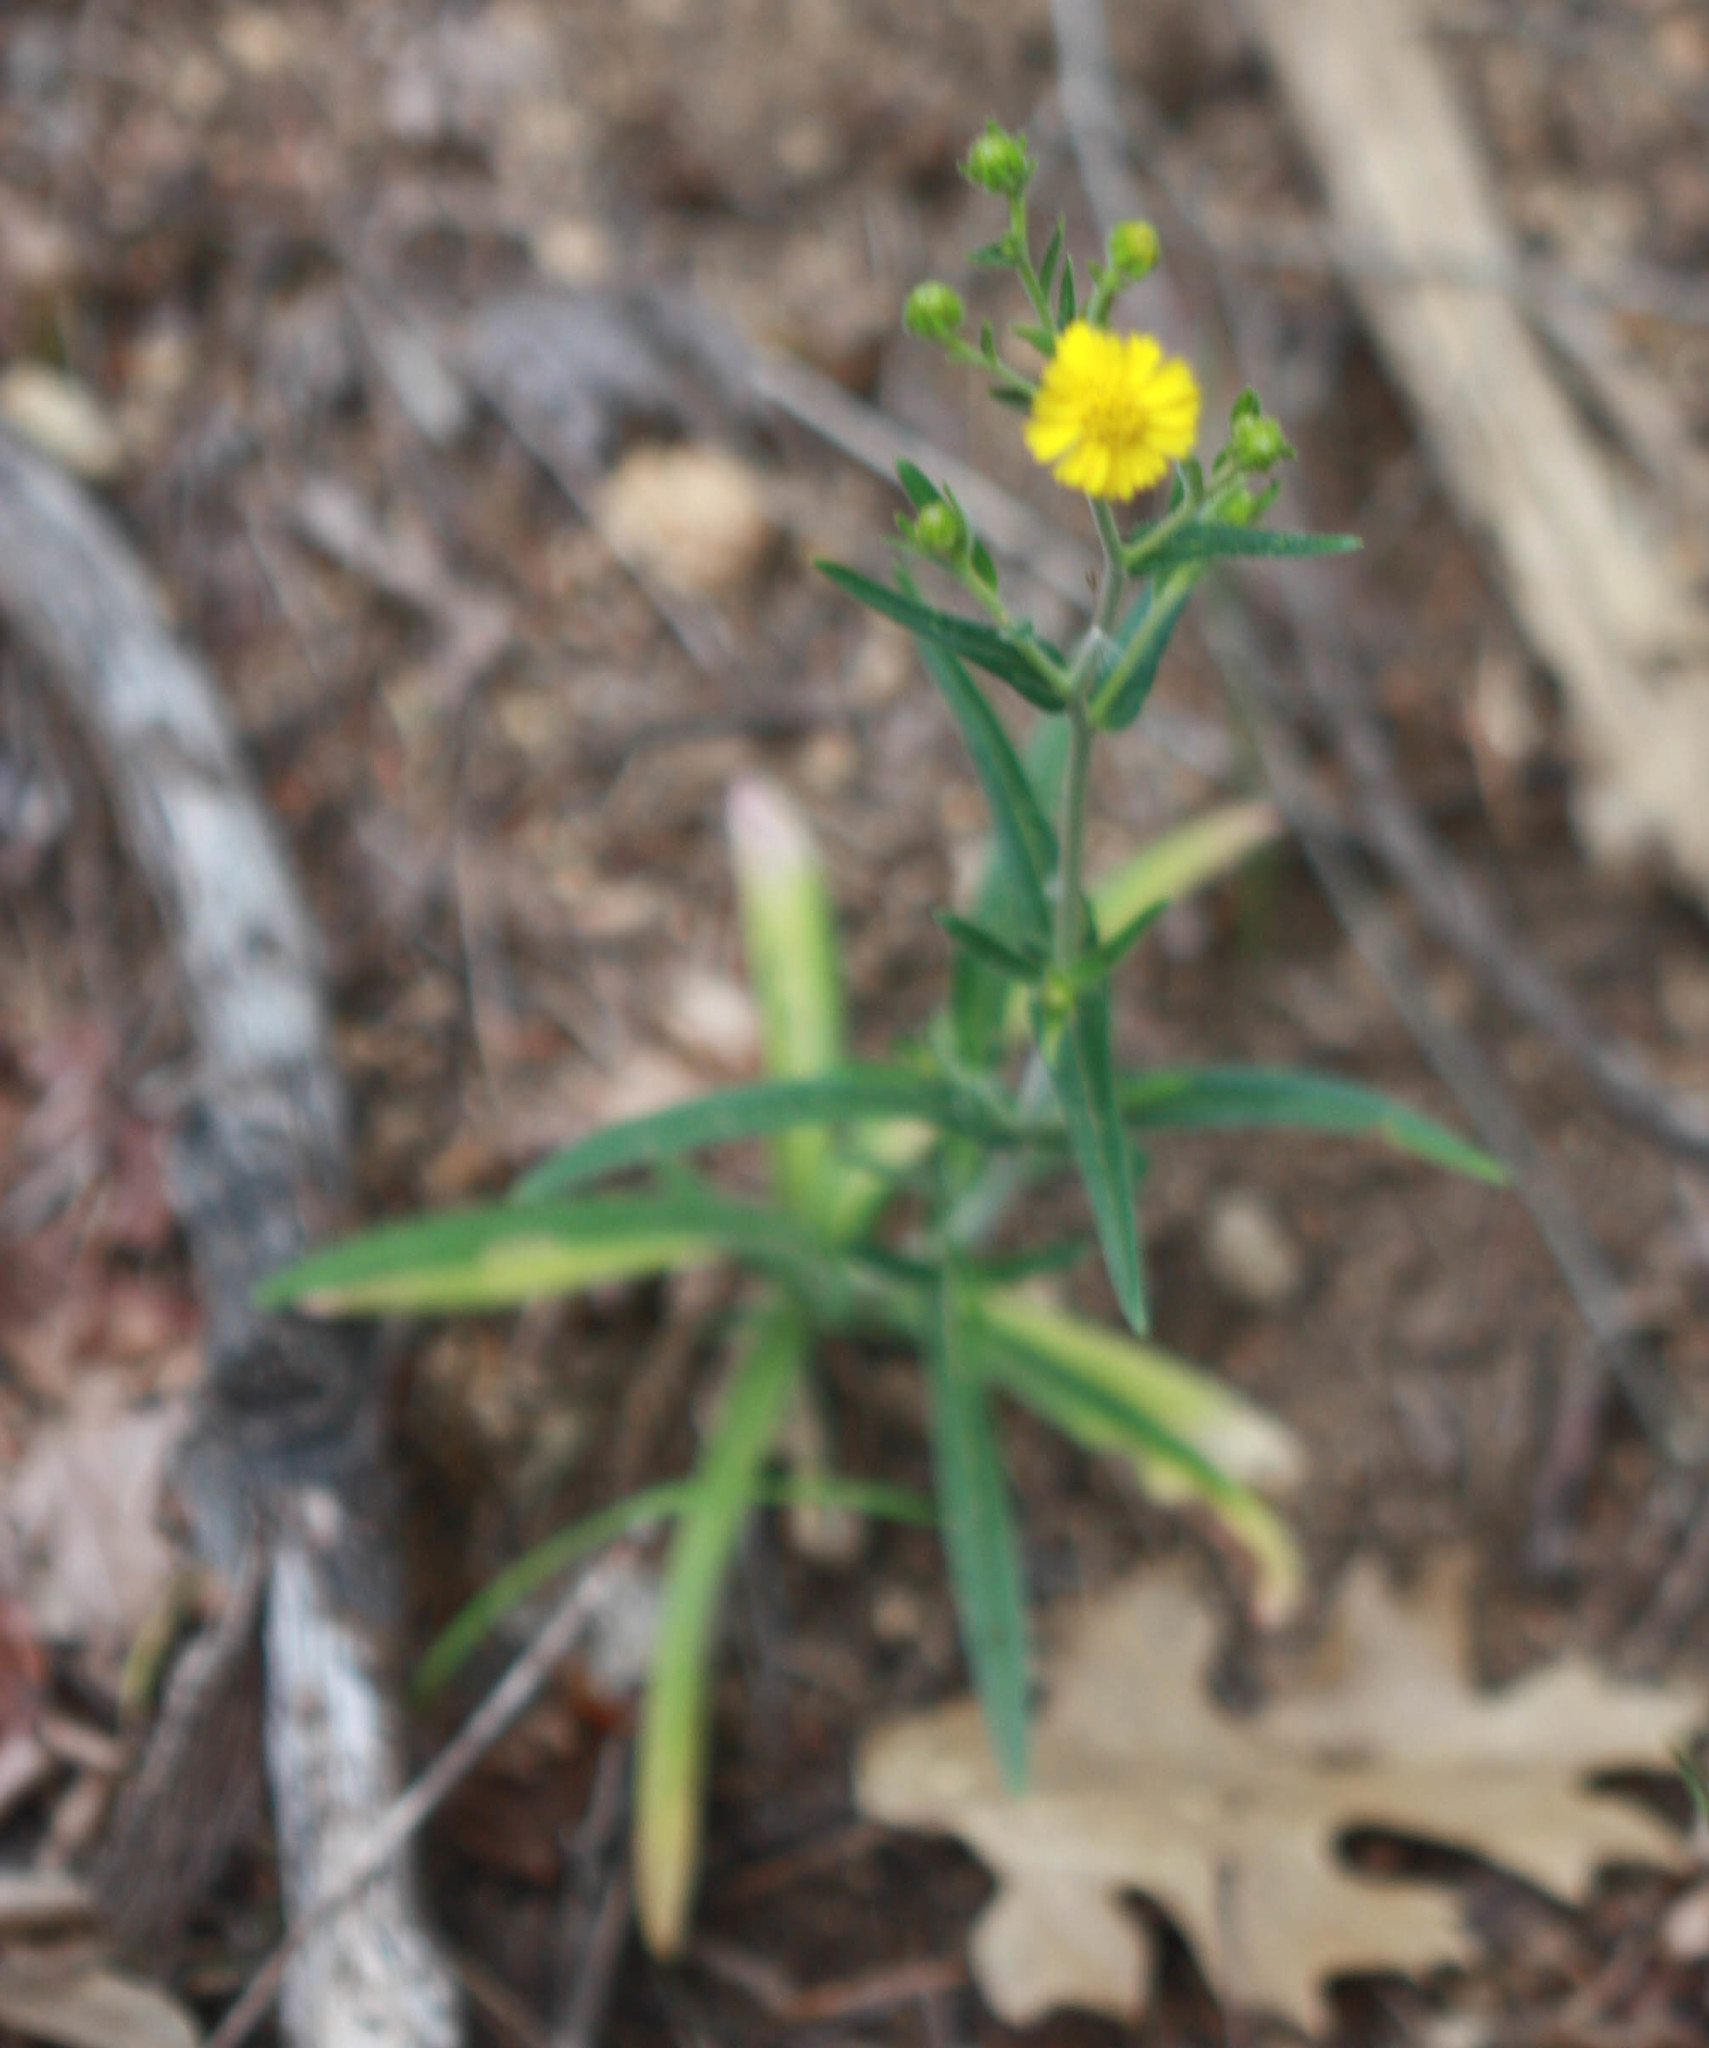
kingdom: Plantae
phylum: Tracheophyta
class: Magnoliopsida
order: Asterales
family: Asteraceae
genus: Anisocarpus
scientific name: Anisocarpus madioides
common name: Woodland madia
